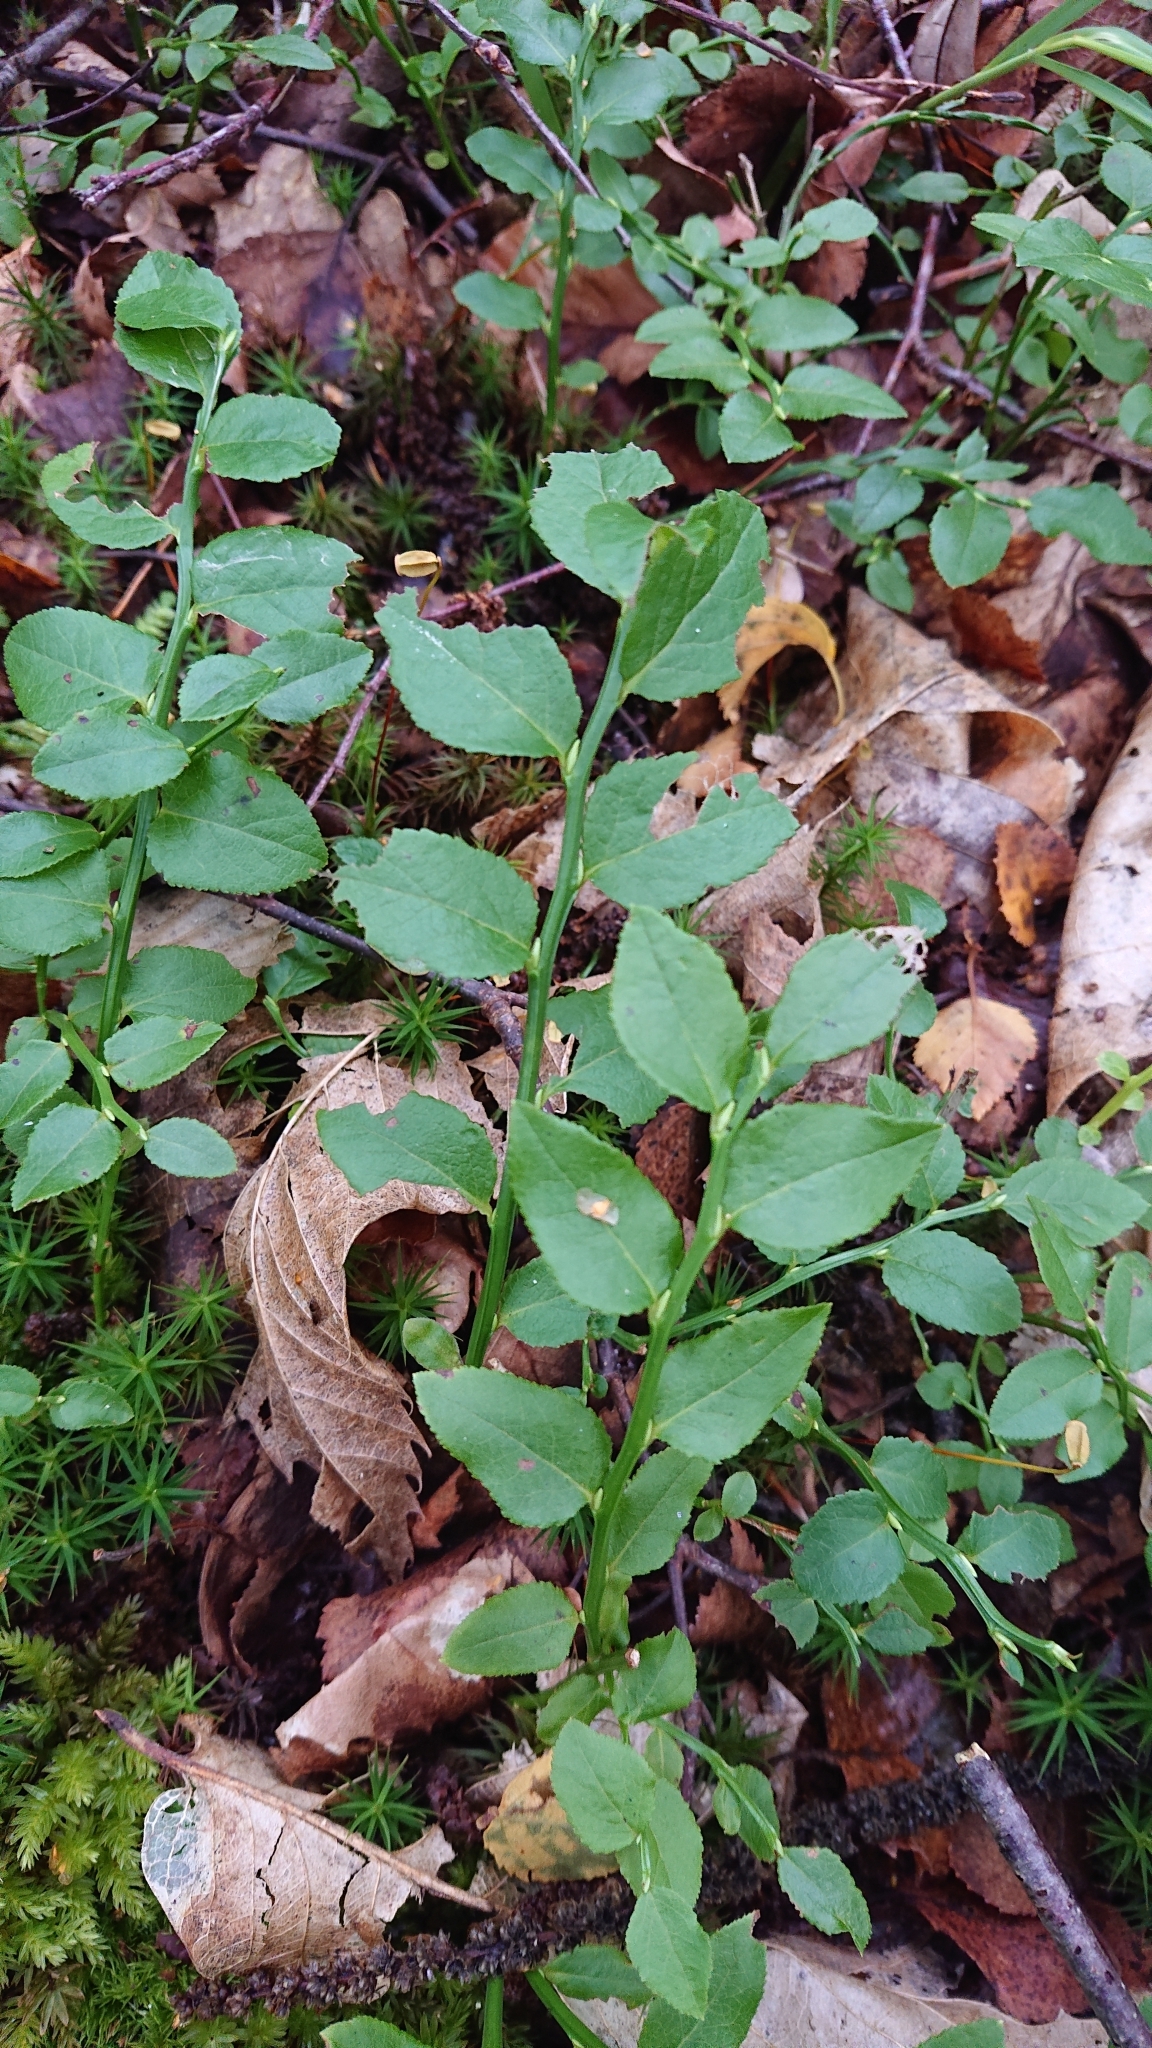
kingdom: Plantae
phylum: Tracheophyta
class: Magnoliopsida
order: Ericales
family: Ericaceae
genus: Vaccinium
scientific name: Vaccinium myrtillus
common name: Bilberry
